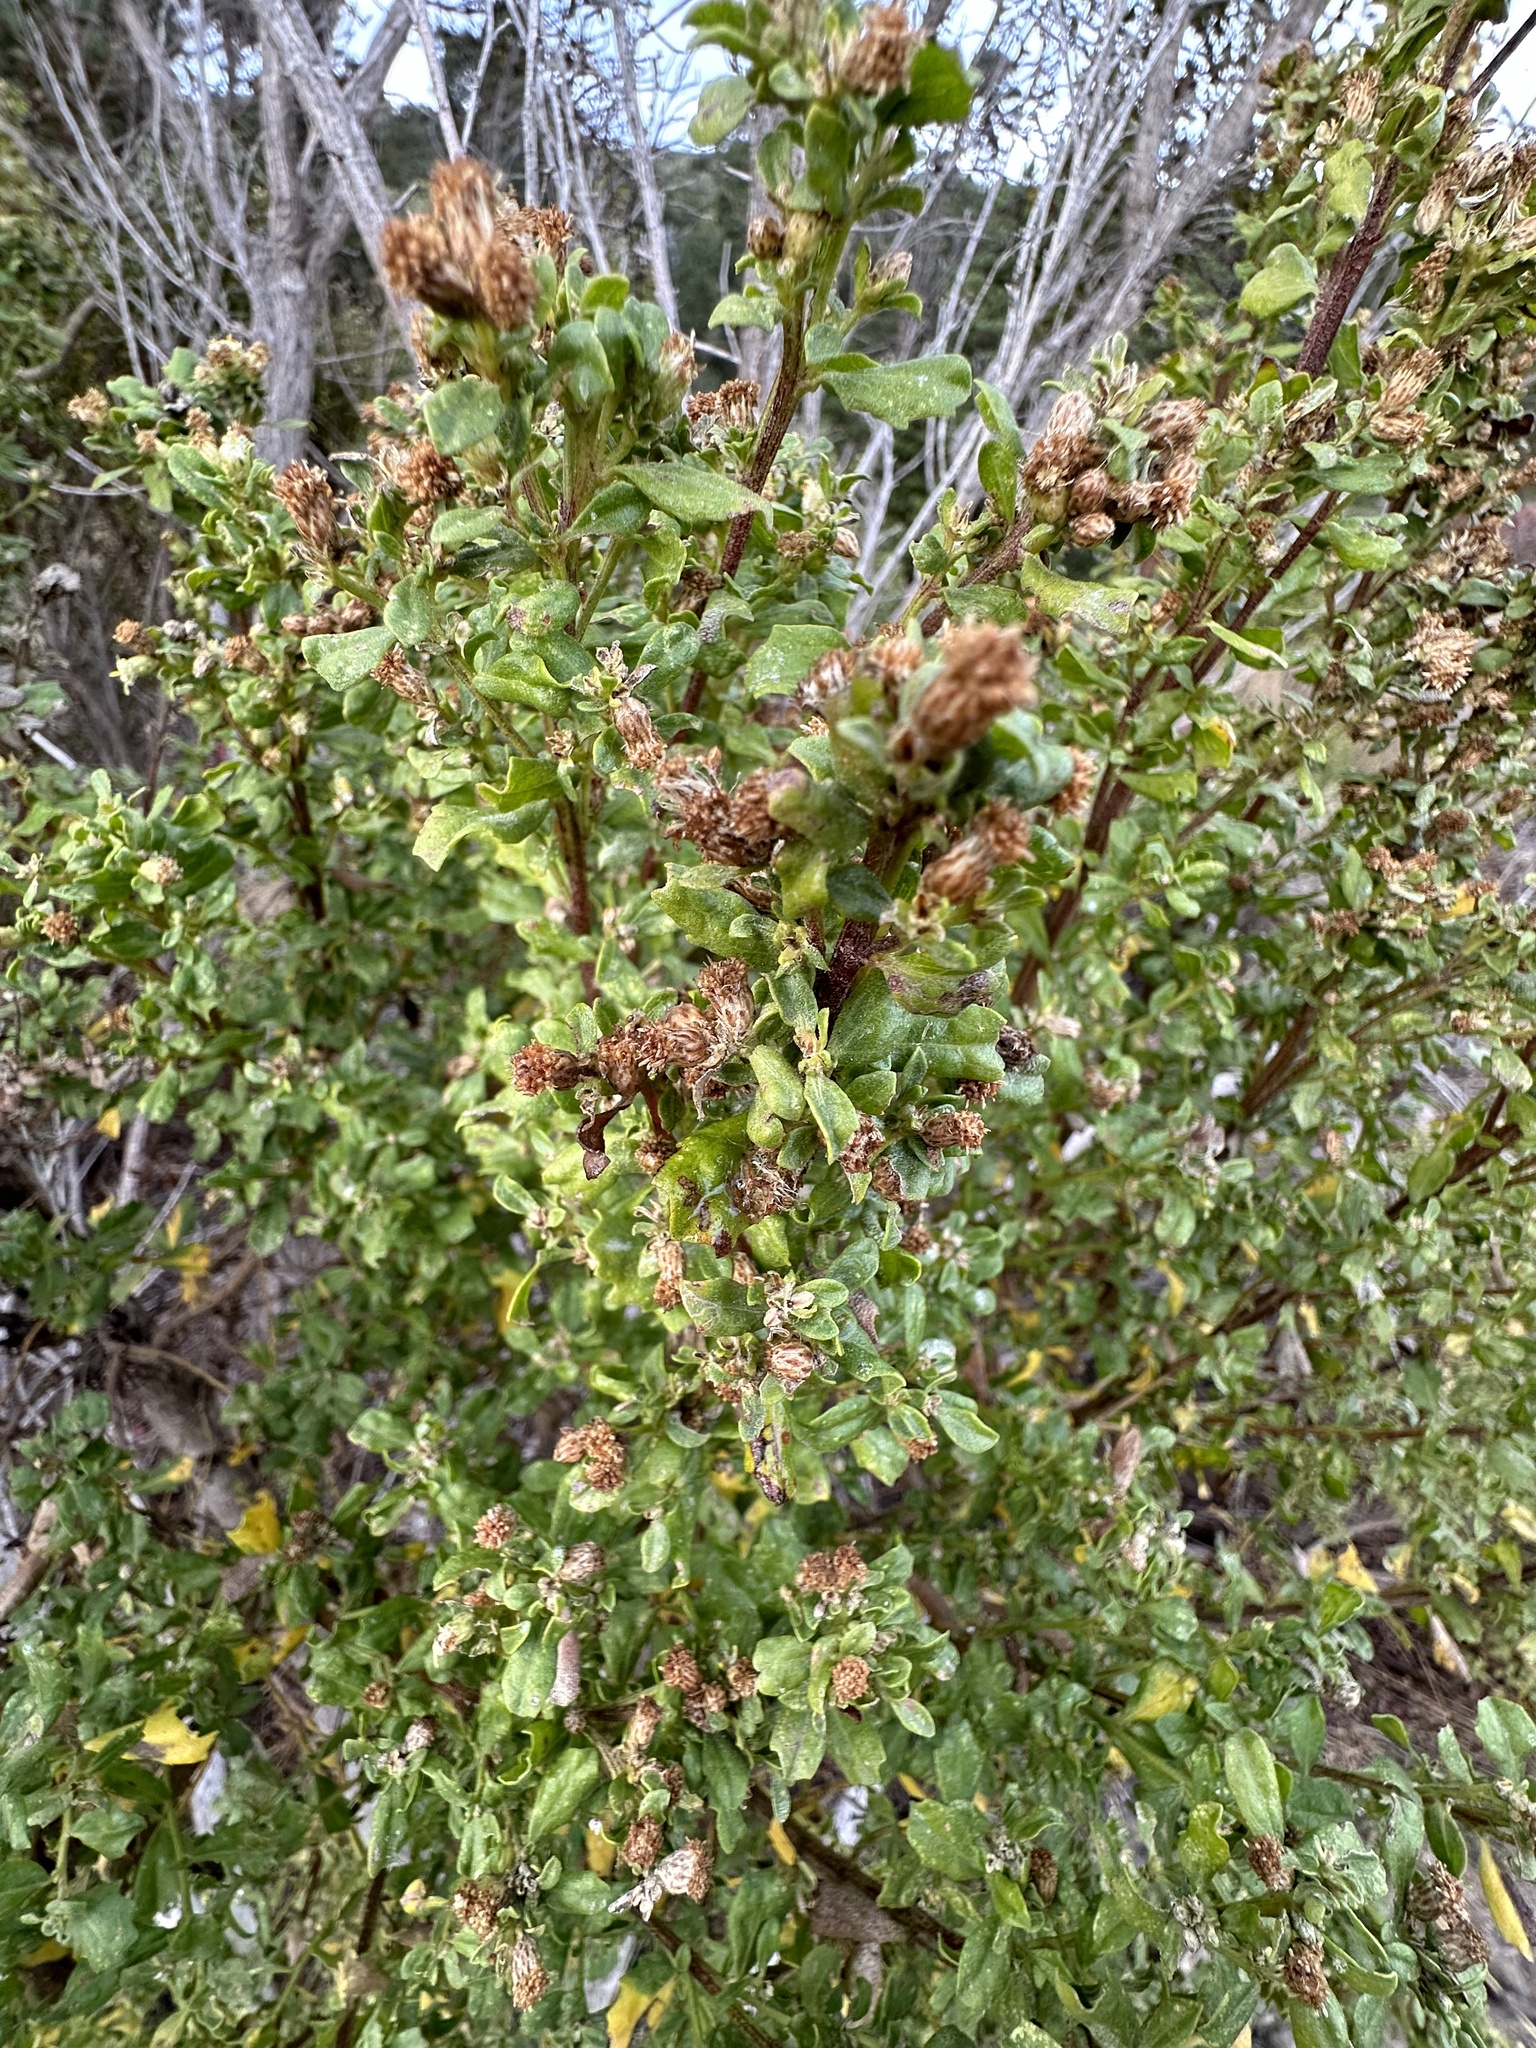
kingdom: Plantae
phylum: Tracheophyta
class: Magnoliopsida
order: Asterales
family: Asteraceae
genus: Baccharis
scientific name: Baccharis pilularis
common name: Coyotebrush
